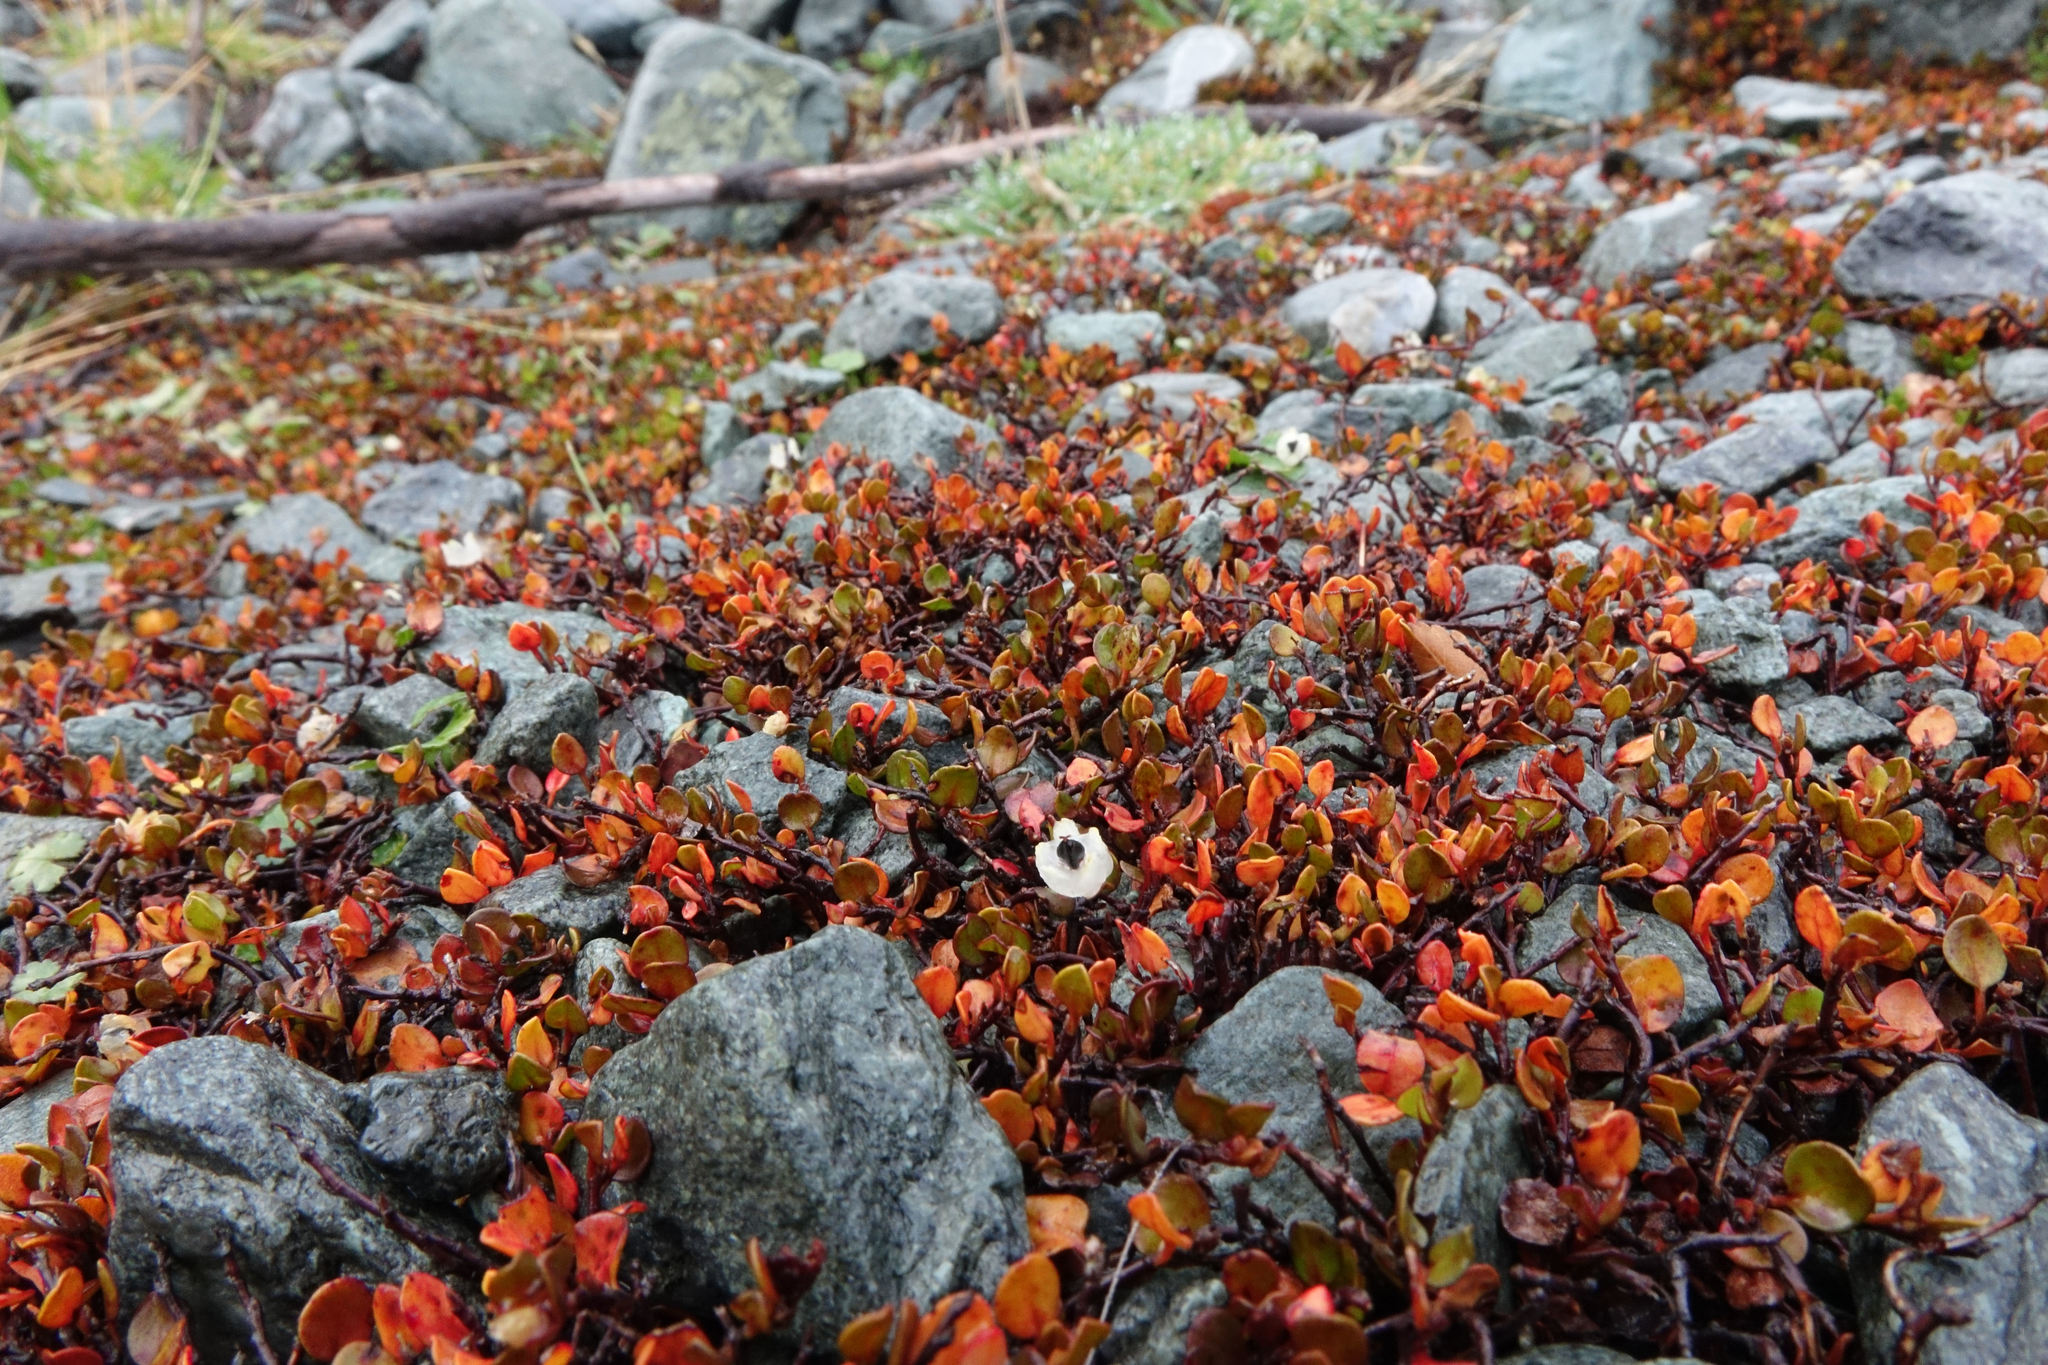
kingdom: Plantae
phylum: Tracheophyta
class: Magnoliopsida
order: Caryophyllales
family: Polygonaceae
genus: Muehlenbeckia
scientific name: Muehlenbeckia axillaris
